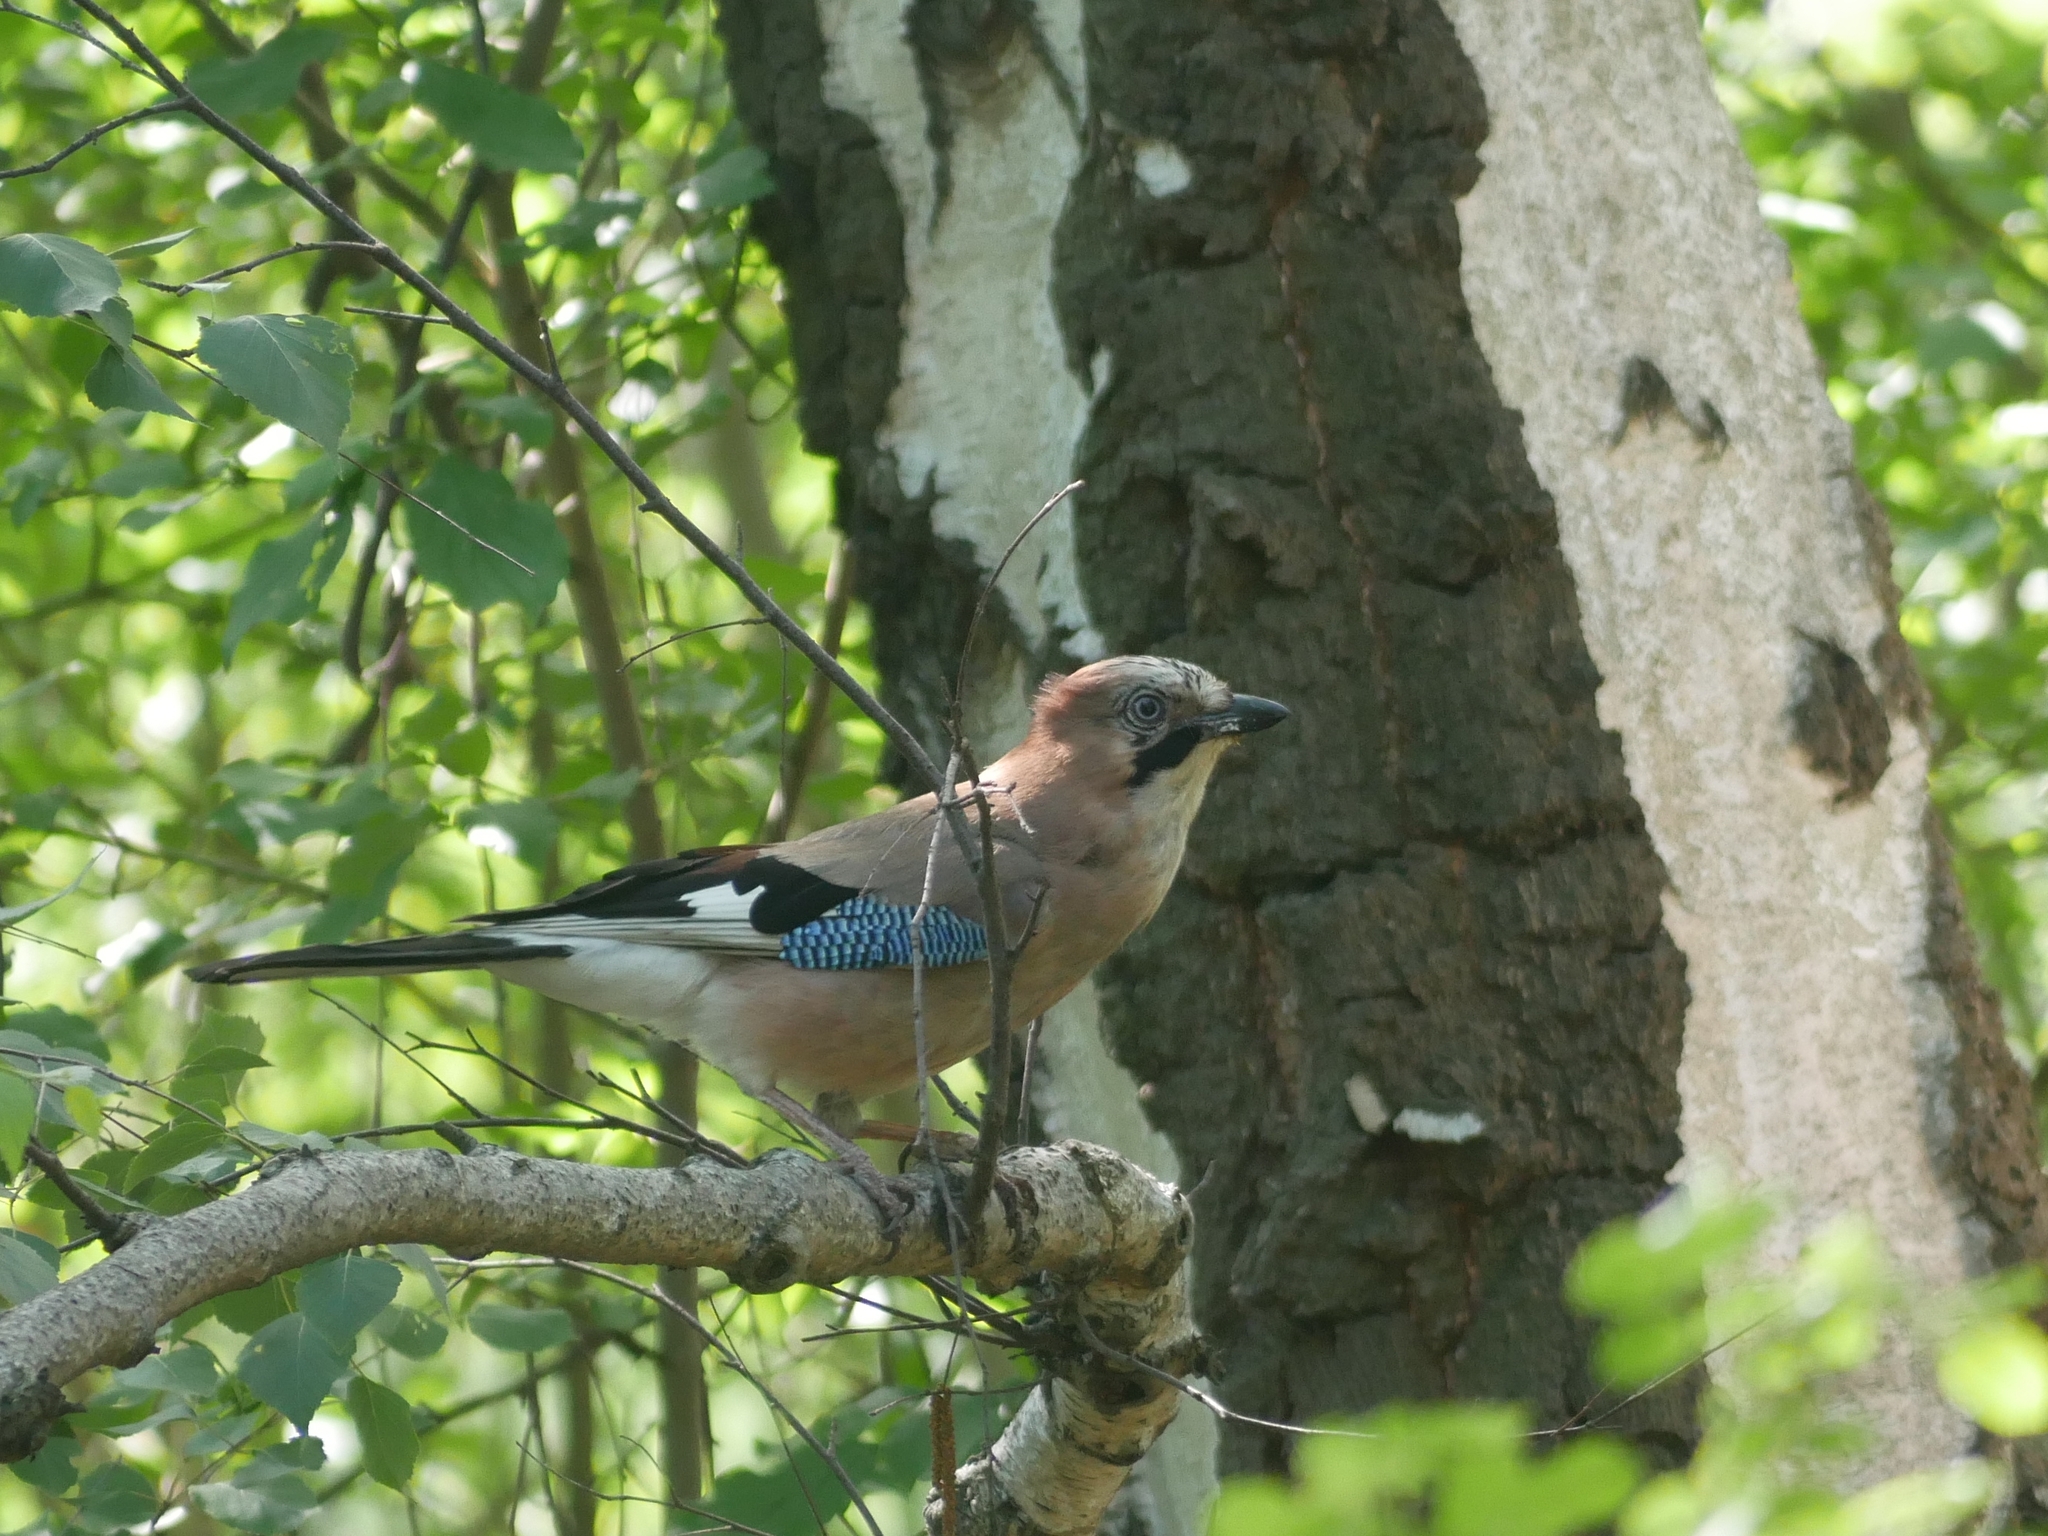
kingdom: Animalia
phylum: Chordata
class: Aves
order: Passeriformes
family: Corvidae
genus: Garrulus
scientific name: Garrulus glandarius
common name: Eurasian jay
